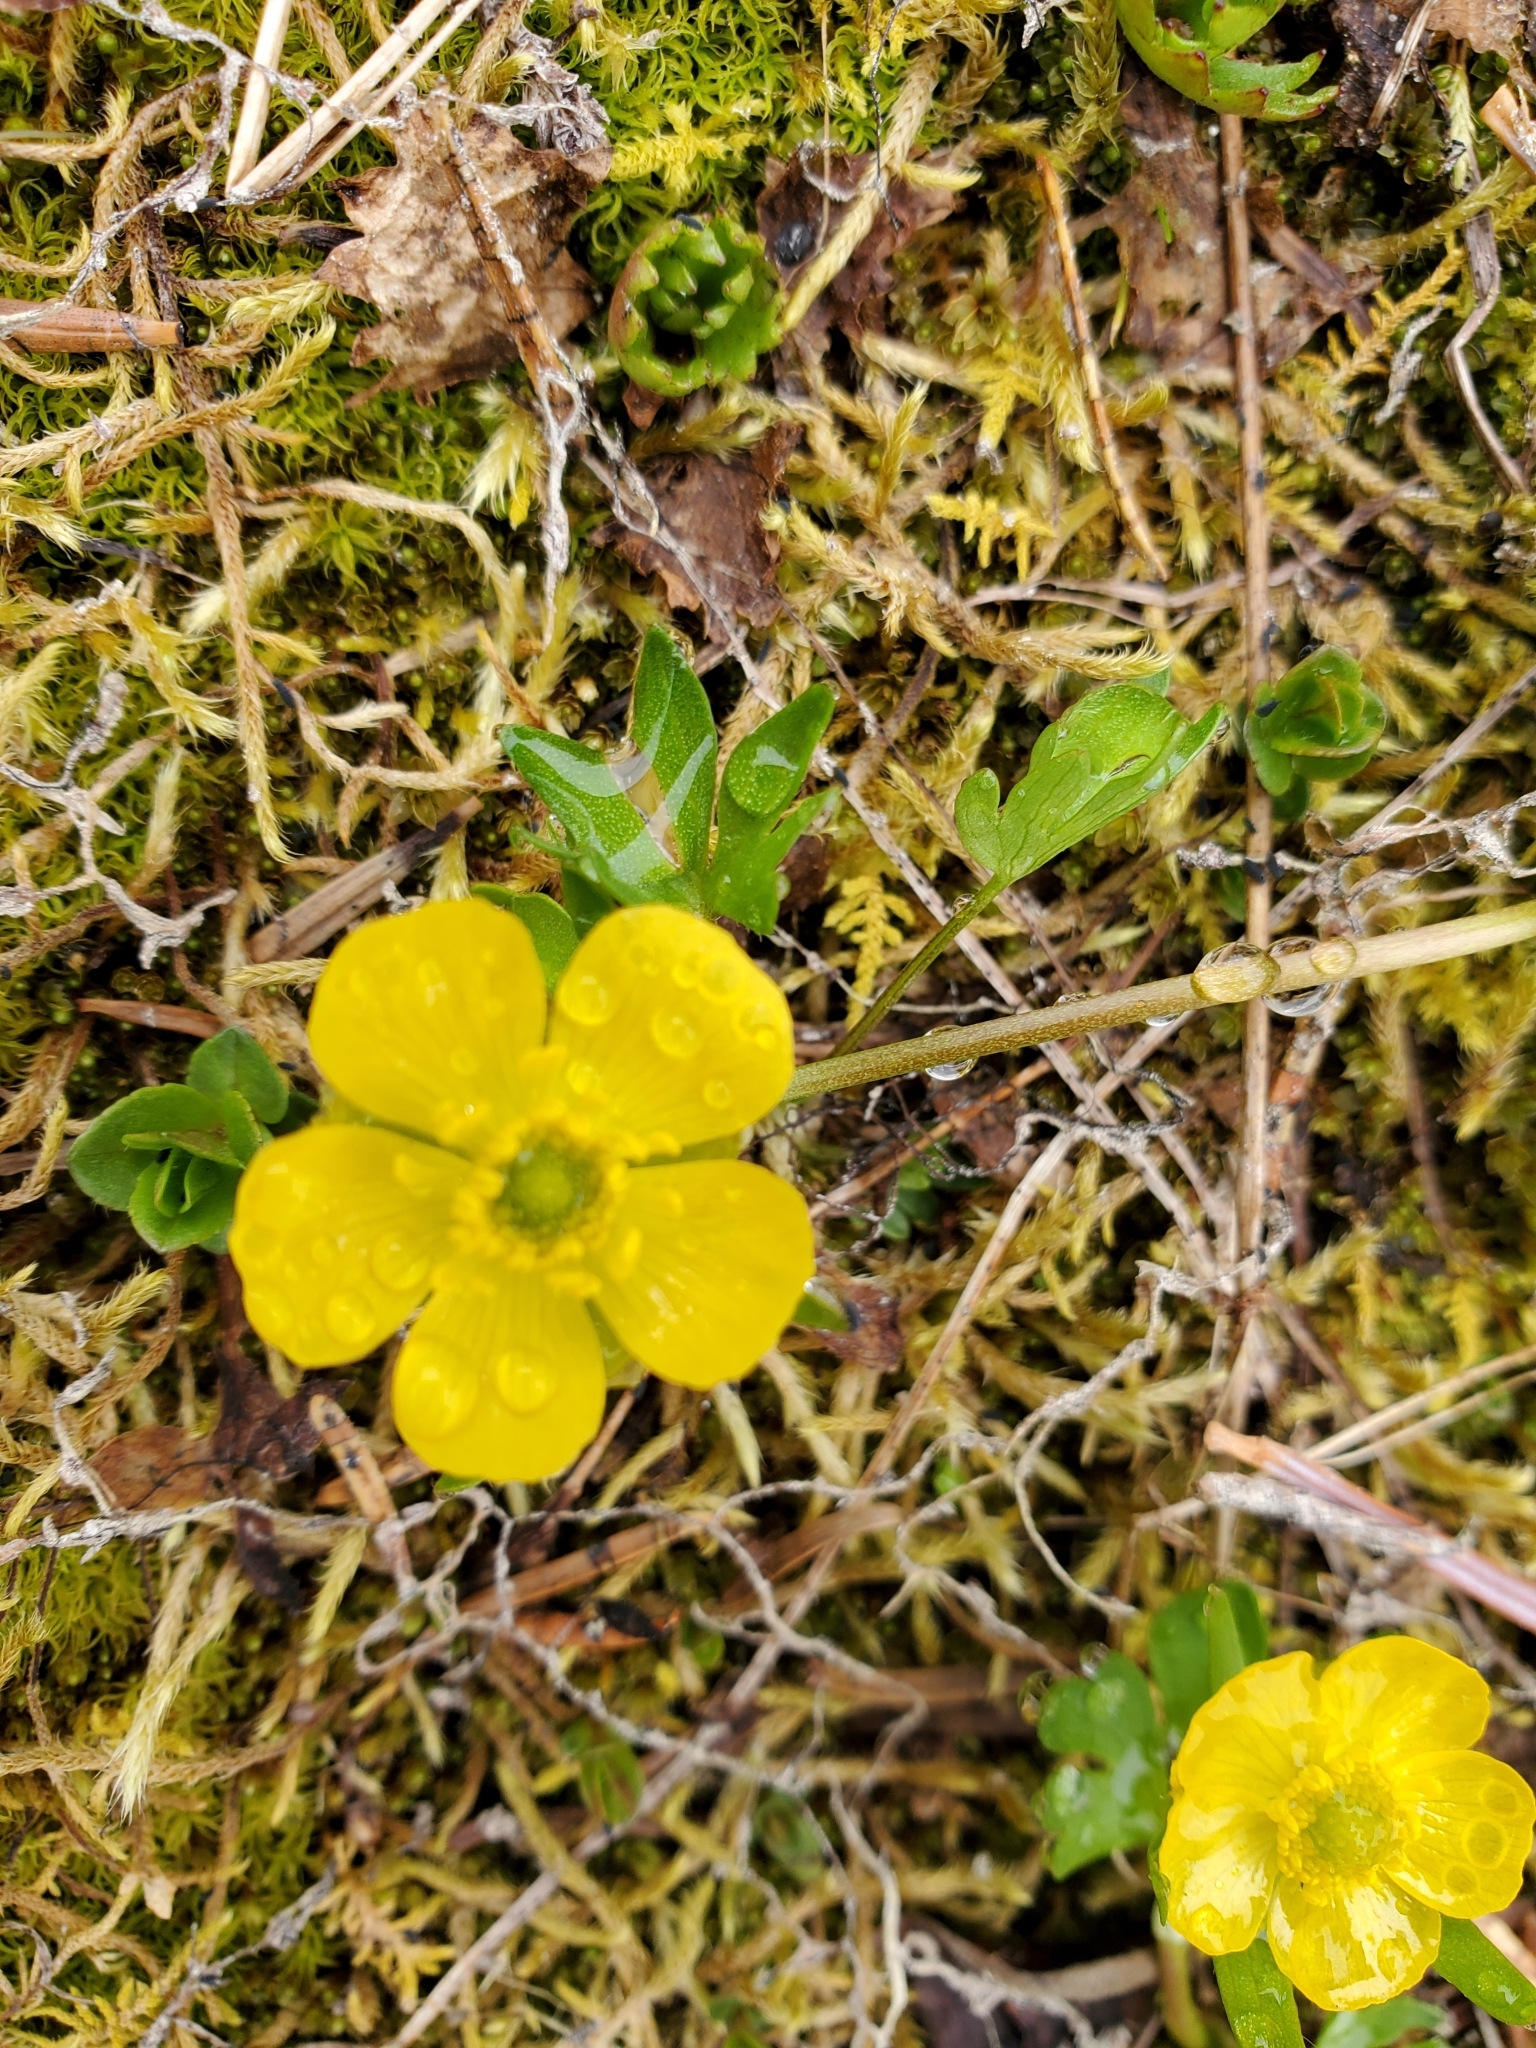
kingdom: Plantae
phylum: Tracheophyta
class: Magnoliopsida
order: Ranunculales
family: Ranunculaceae
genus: Ranunculus
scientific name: Ranunculus eschscholtzii
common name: Eschscholtz's buttercup
